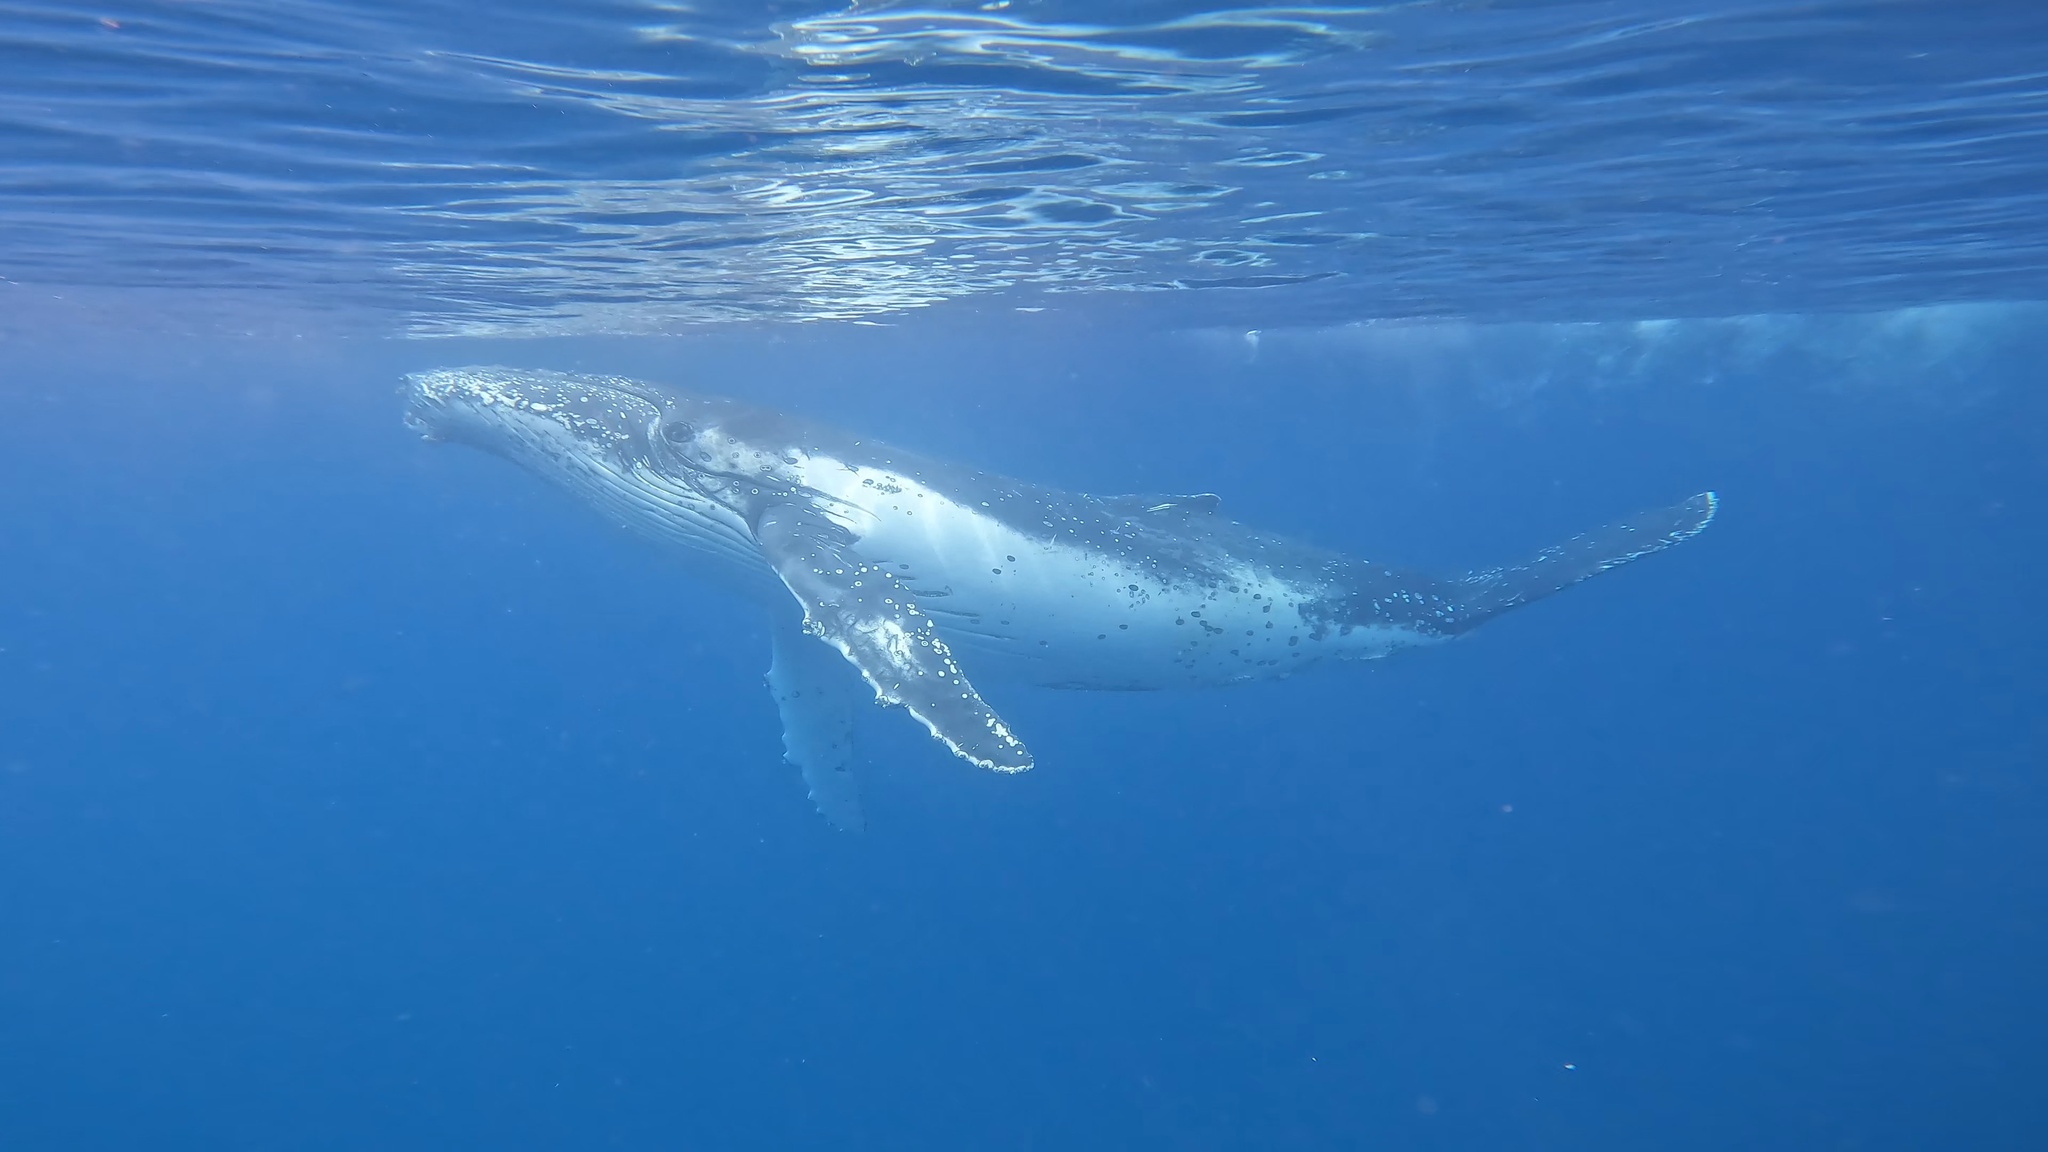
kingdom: Animalia
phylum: Chordata
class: Mammalia
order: Cetacea
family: Balaenopteridae
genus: Megaptera
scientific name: Megaptera novaeangliae
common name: Humpback whale
